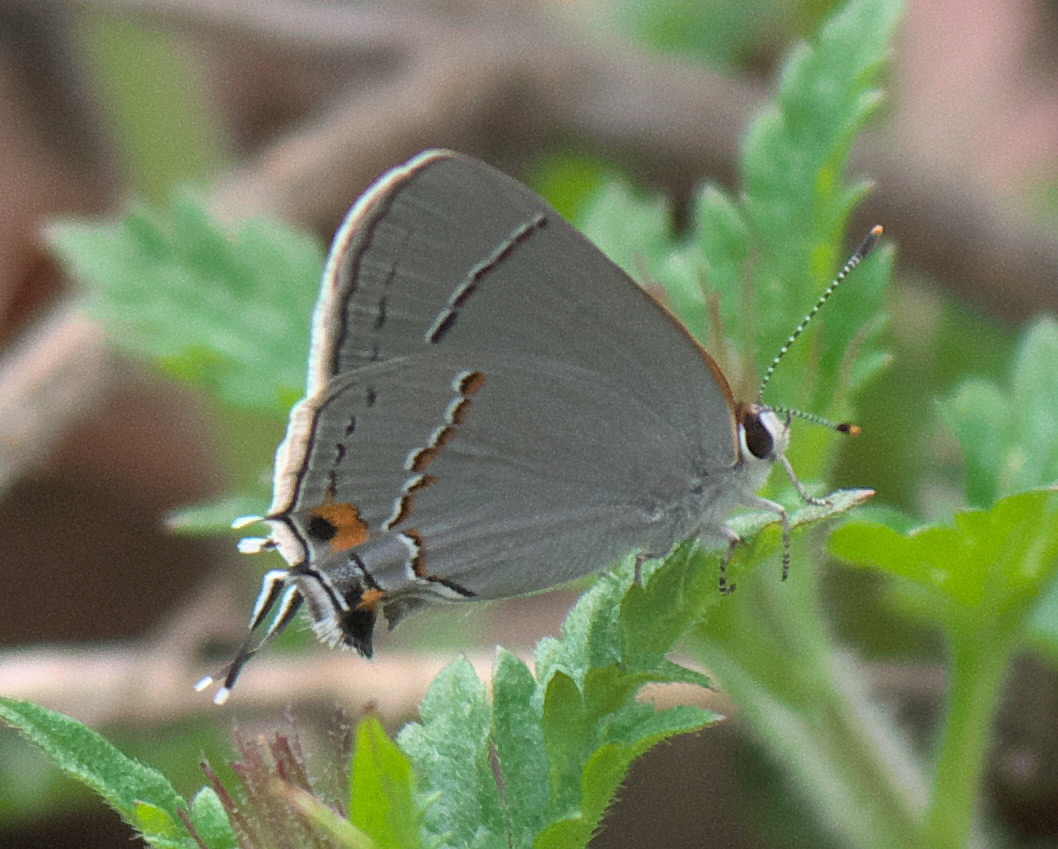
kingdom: Animalia
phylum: Arthropoda
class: Insecta
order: Lepidoptera
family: Lycaenidae
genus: Strymon
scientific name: Strymon melinus
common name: Gray hairstreak
